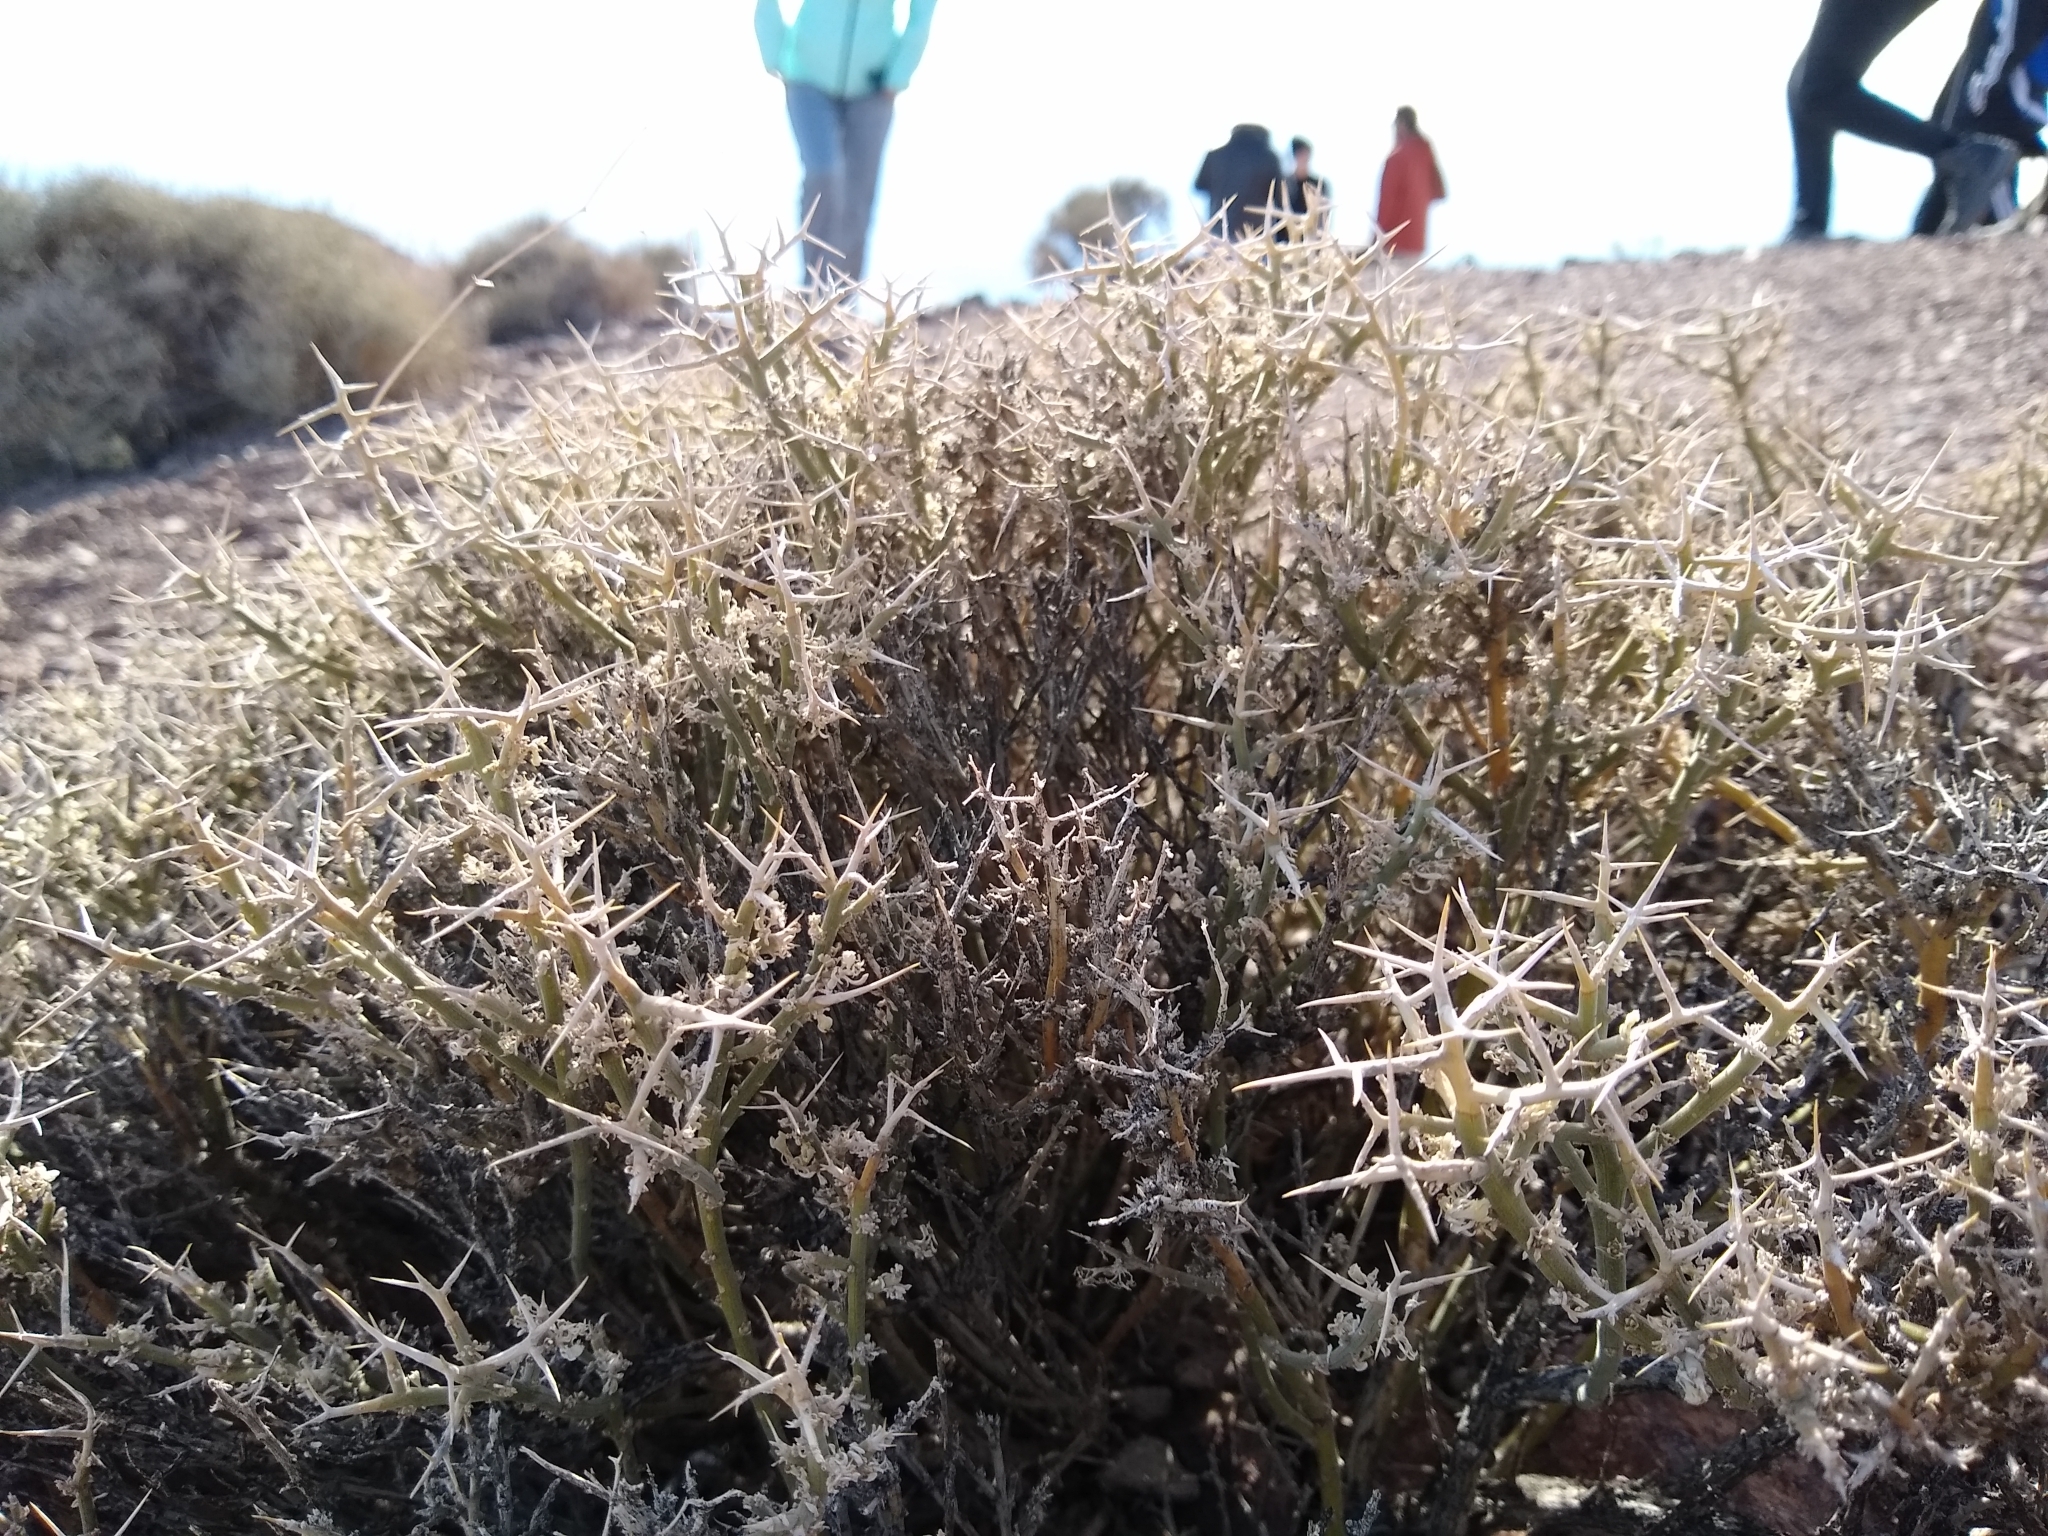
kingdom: Plantae
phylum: Tracheophyta
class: Magnoliopsida
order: Lamiales
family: Oleaceae
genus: Menodora
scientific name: Menodora spinescens
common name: Spiny menodora
